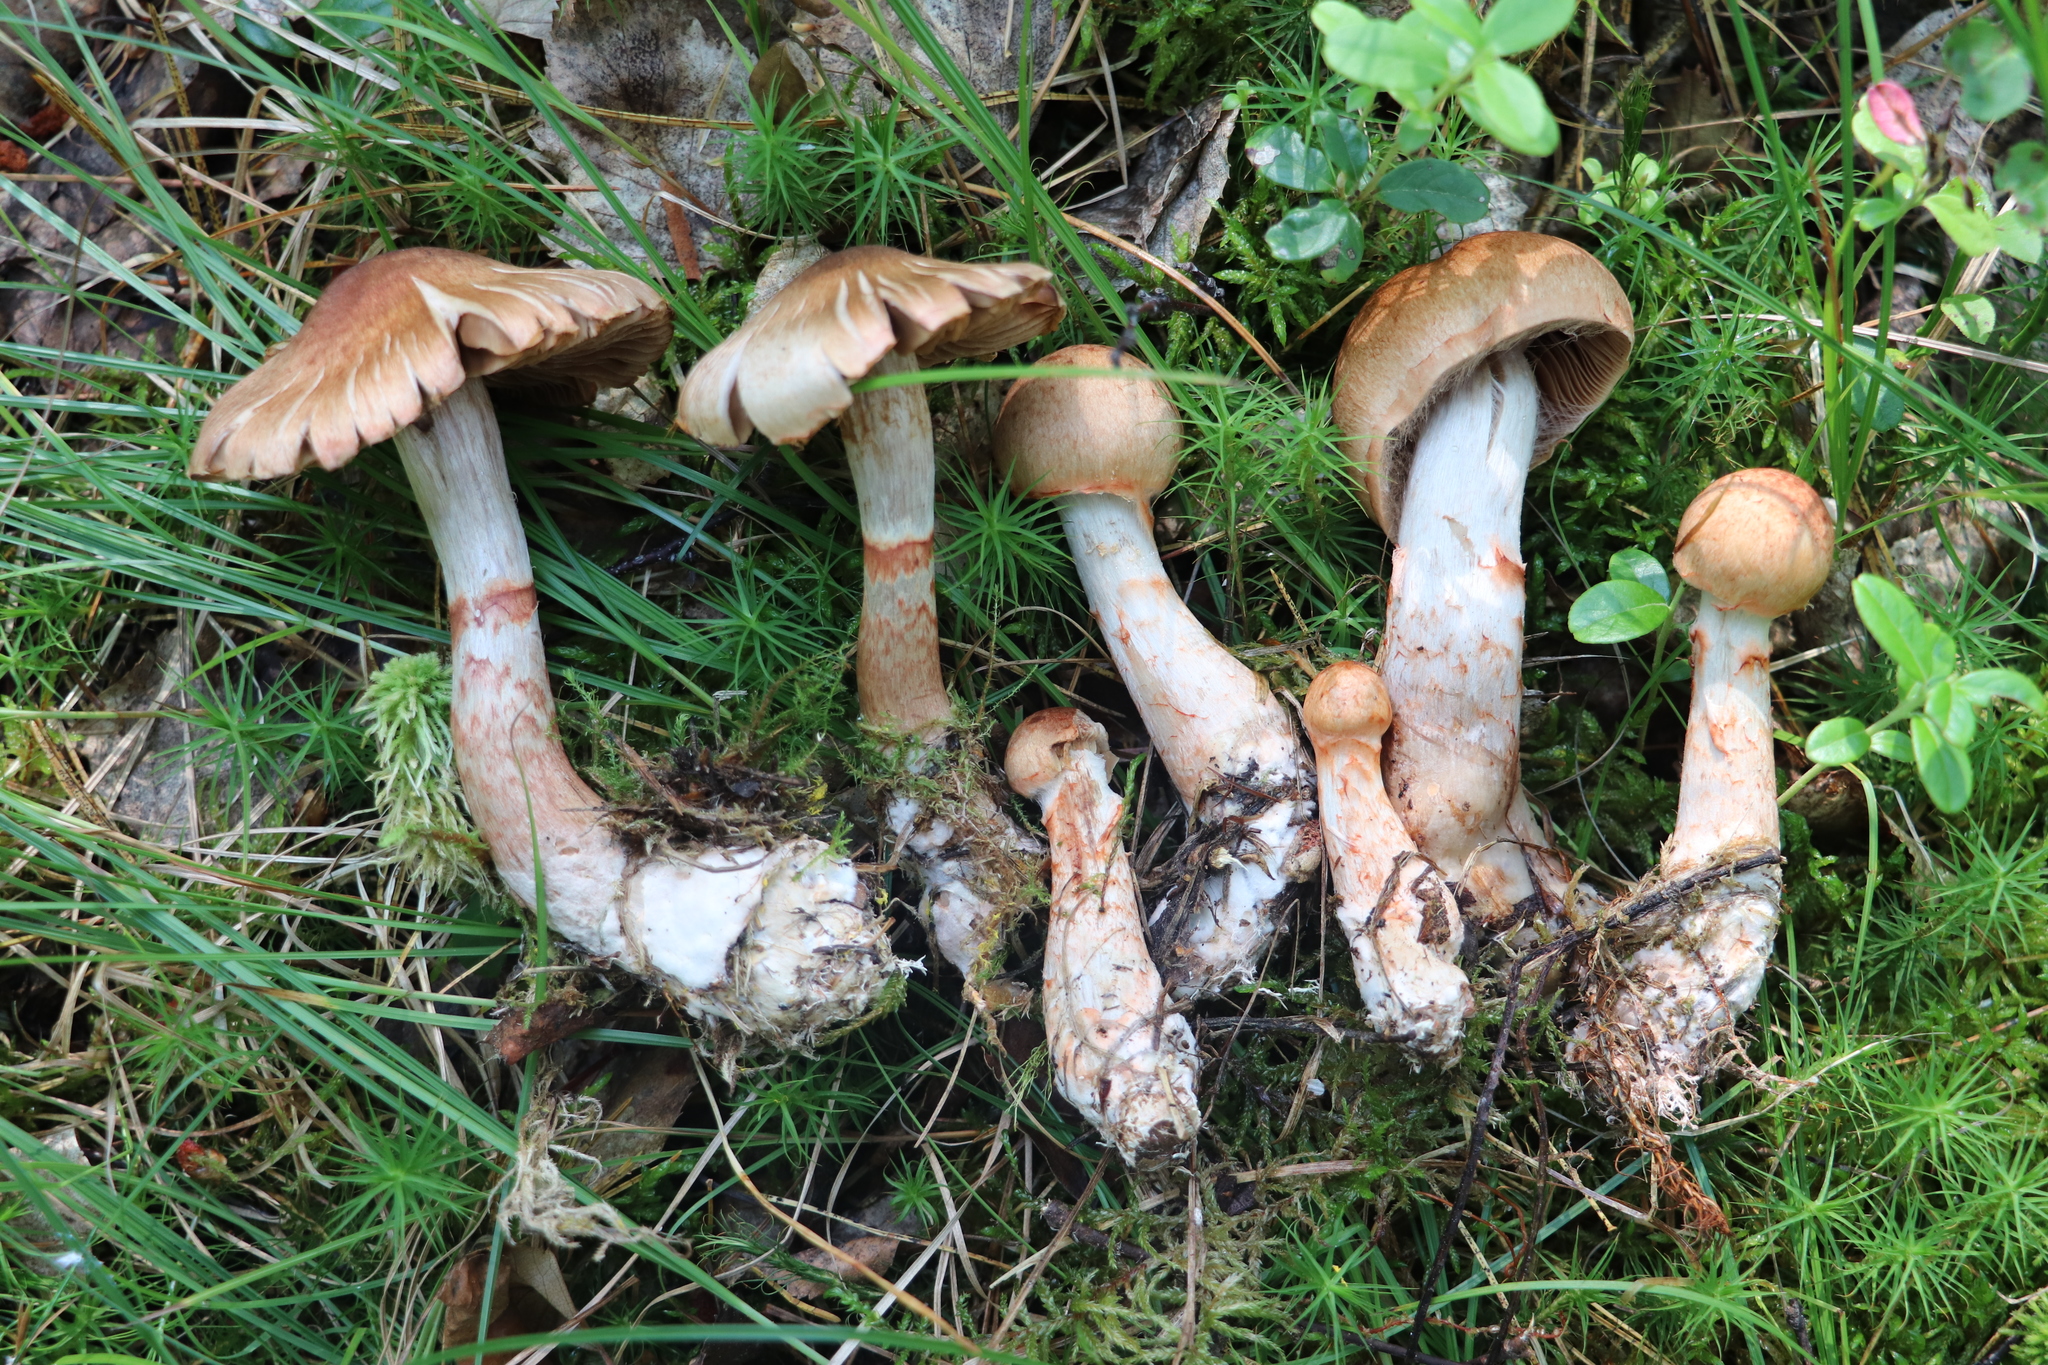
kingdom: Fungi
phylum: Basidiomycota
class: Agaricomycetes
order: Agaricales
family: Cortinariaceae
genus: Cortinarius
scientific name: Cortinarius armillatus
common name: Red banded webcap
